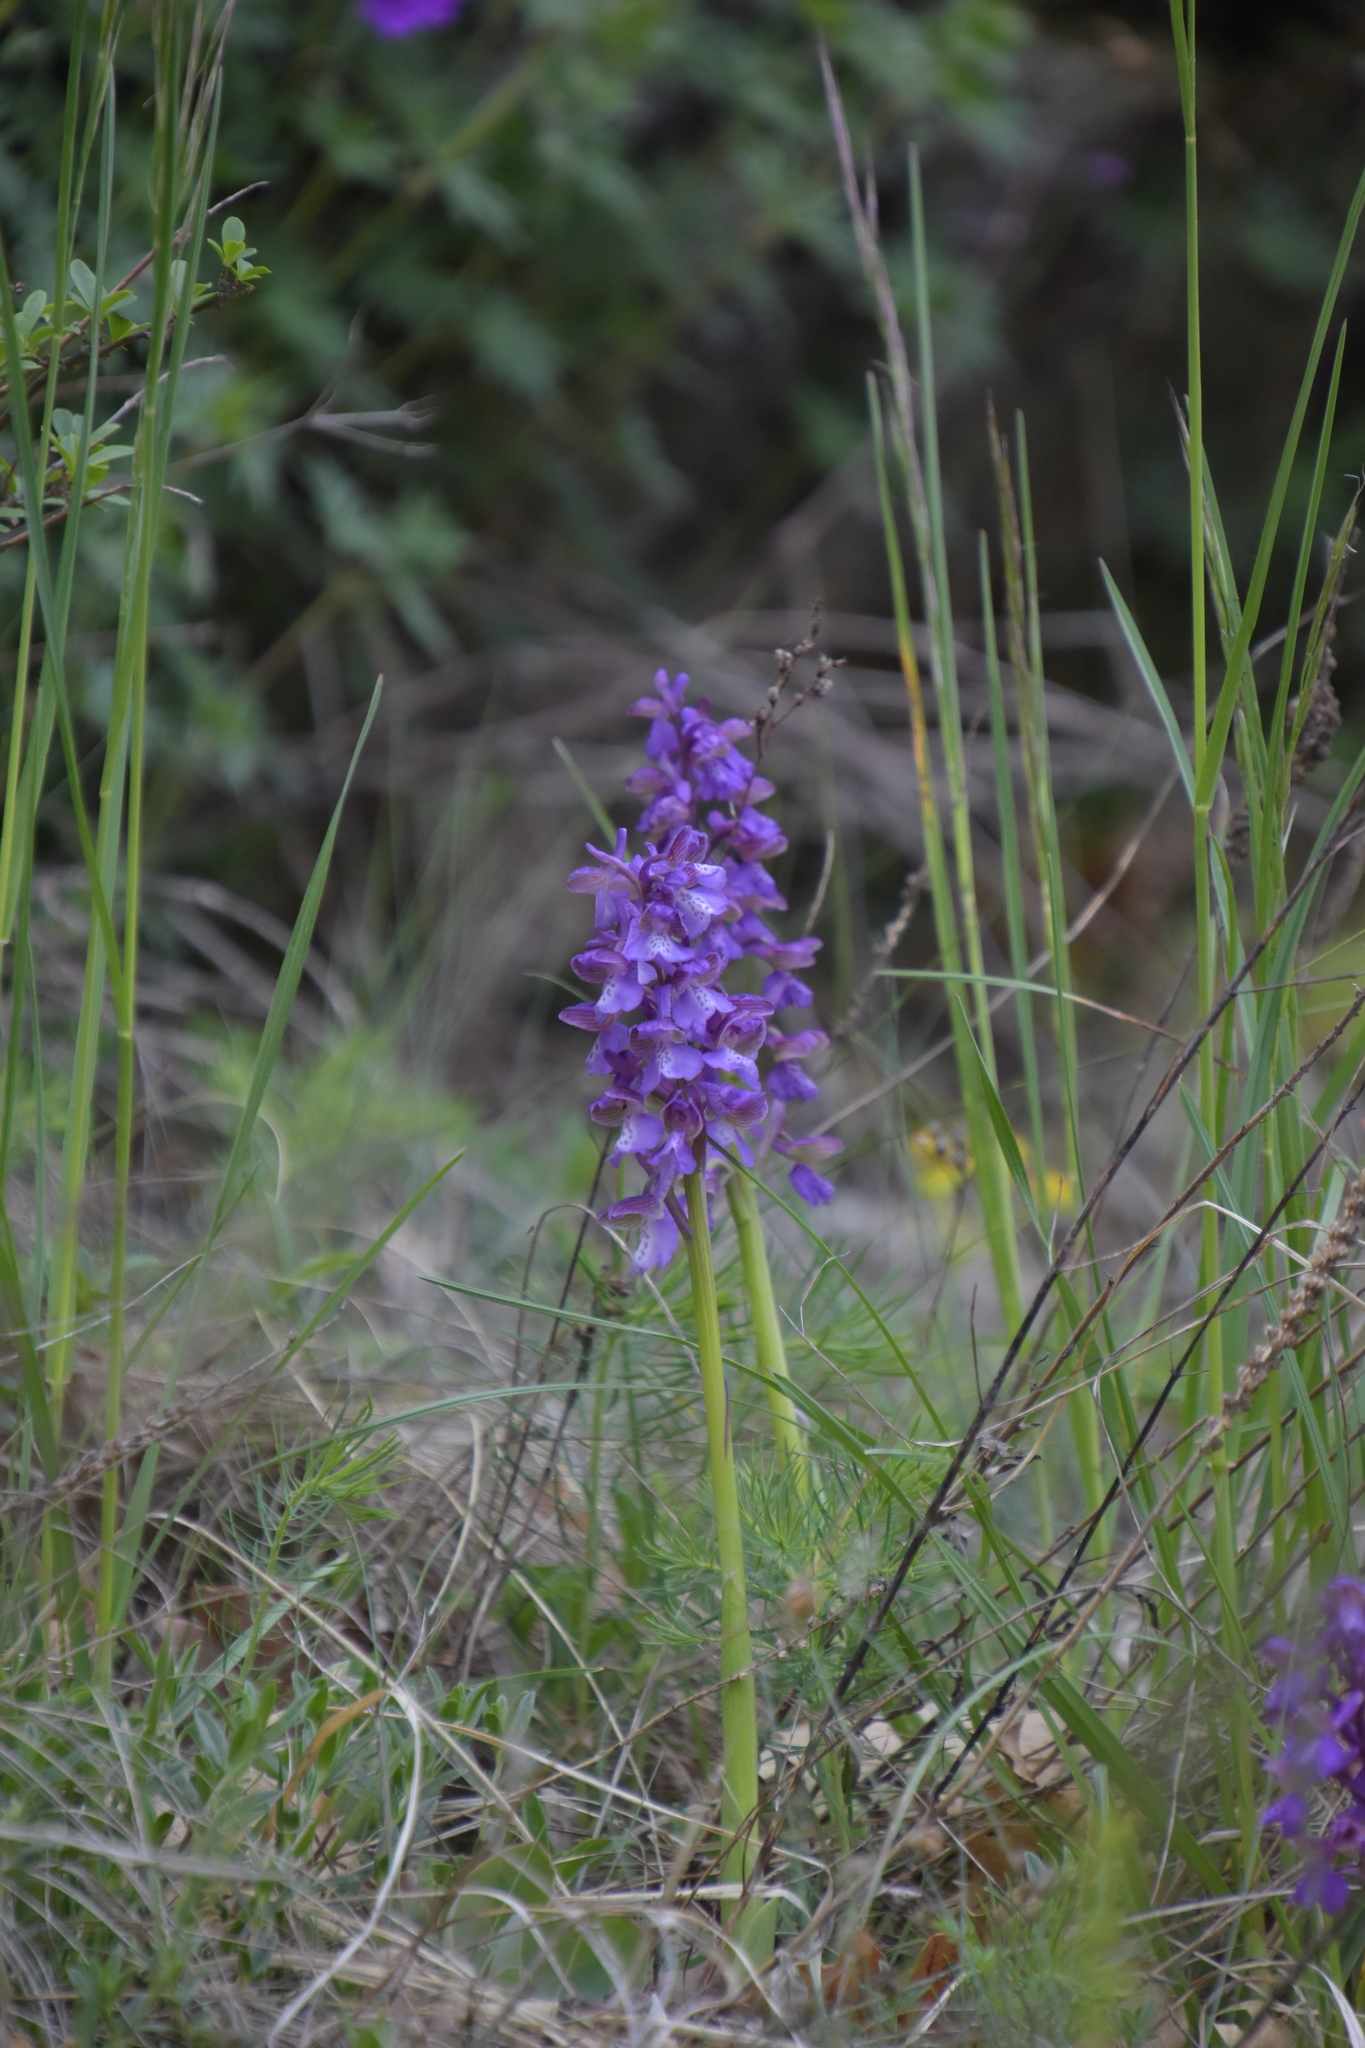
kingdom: Plantae
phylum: Tracheophyta
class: Liliopsida
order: Asparagales
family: Orchidaceae
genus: Anacamptis
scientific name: Anacamptis morio
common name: Green-winged orchid
